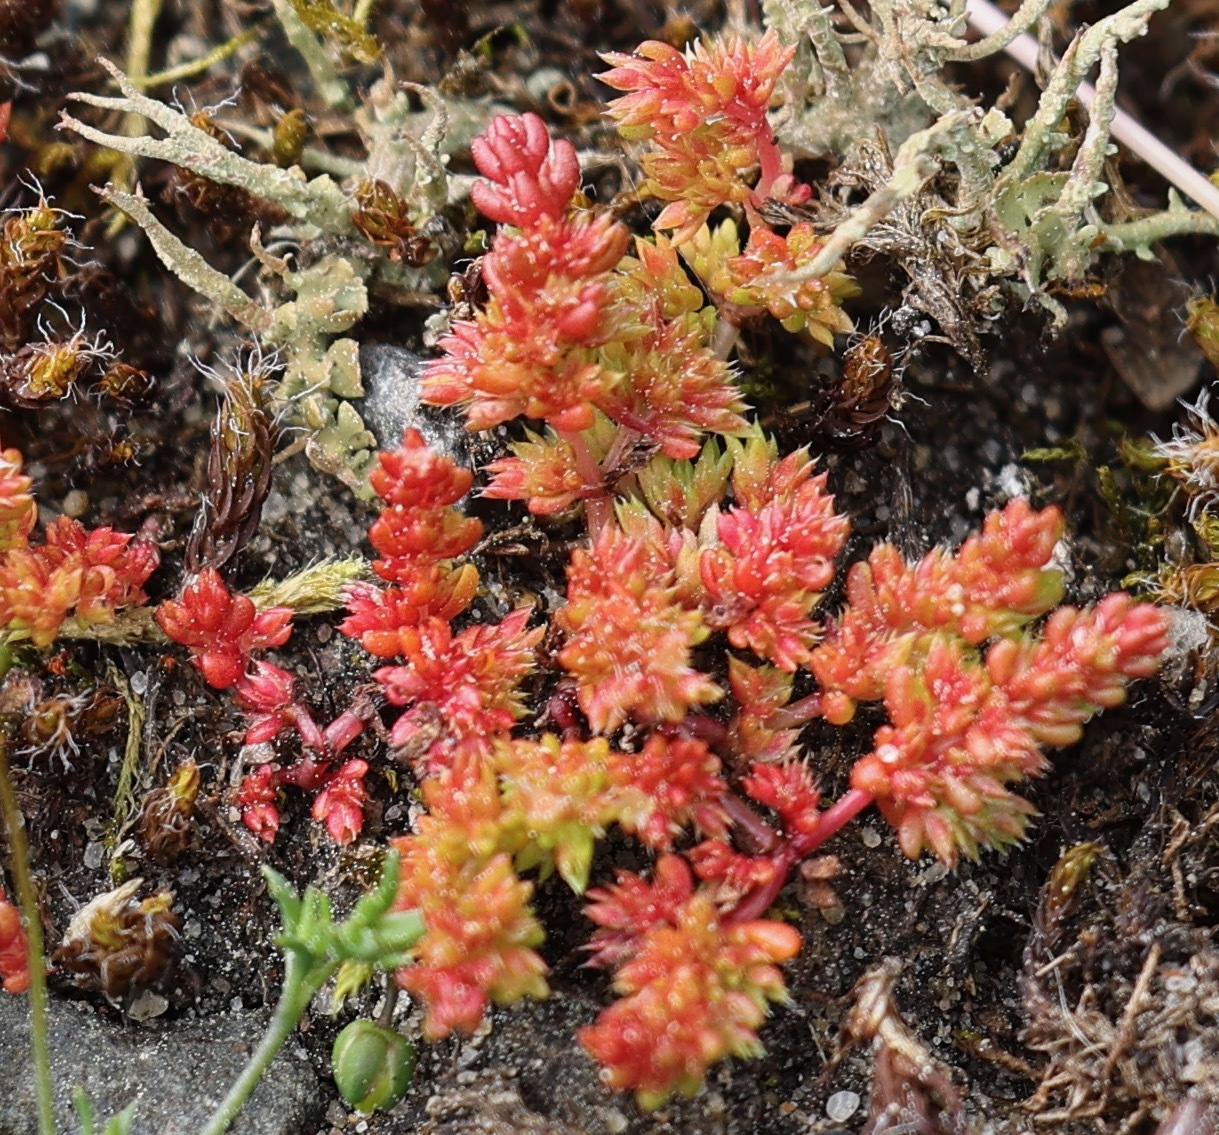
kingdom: Plantae
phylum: Tracheophyta
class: Magnoliopsida
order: Saxifragales
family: Crassulaceae
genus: Crassula
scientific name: Crassula tillaea
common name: Mossy stonecrop
